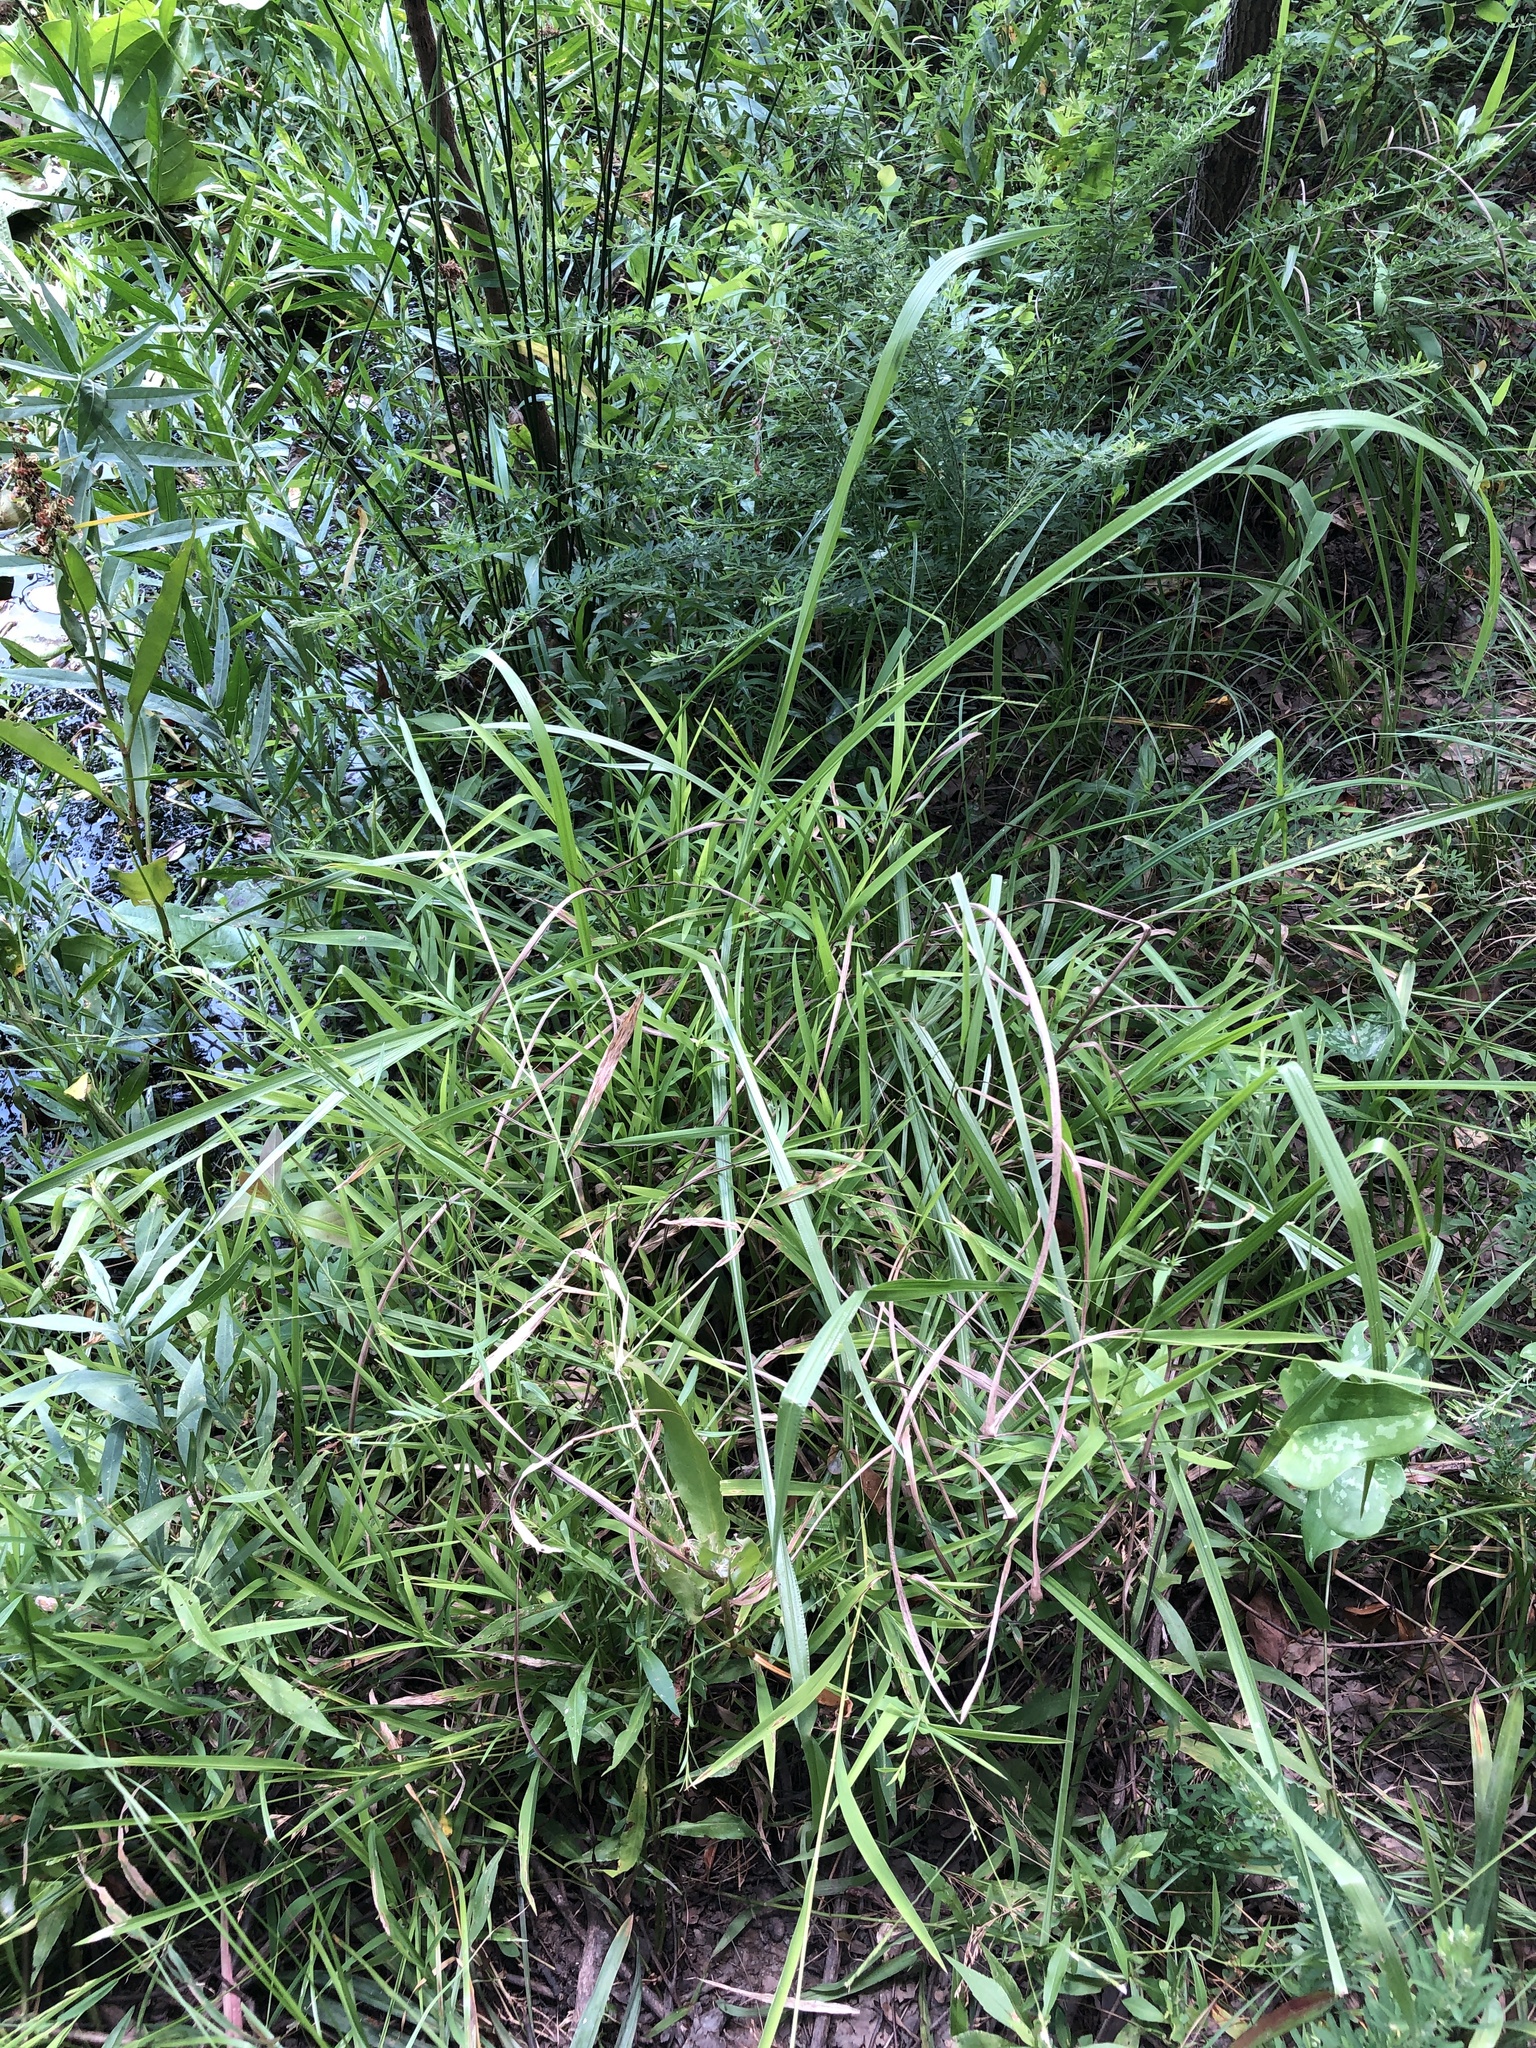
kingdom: Plantae
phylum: Tracheophyta
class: Liliopsida
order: Poales
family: Poaceae
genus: Leersia
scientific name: Leersia virginica
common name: White cutgrass
